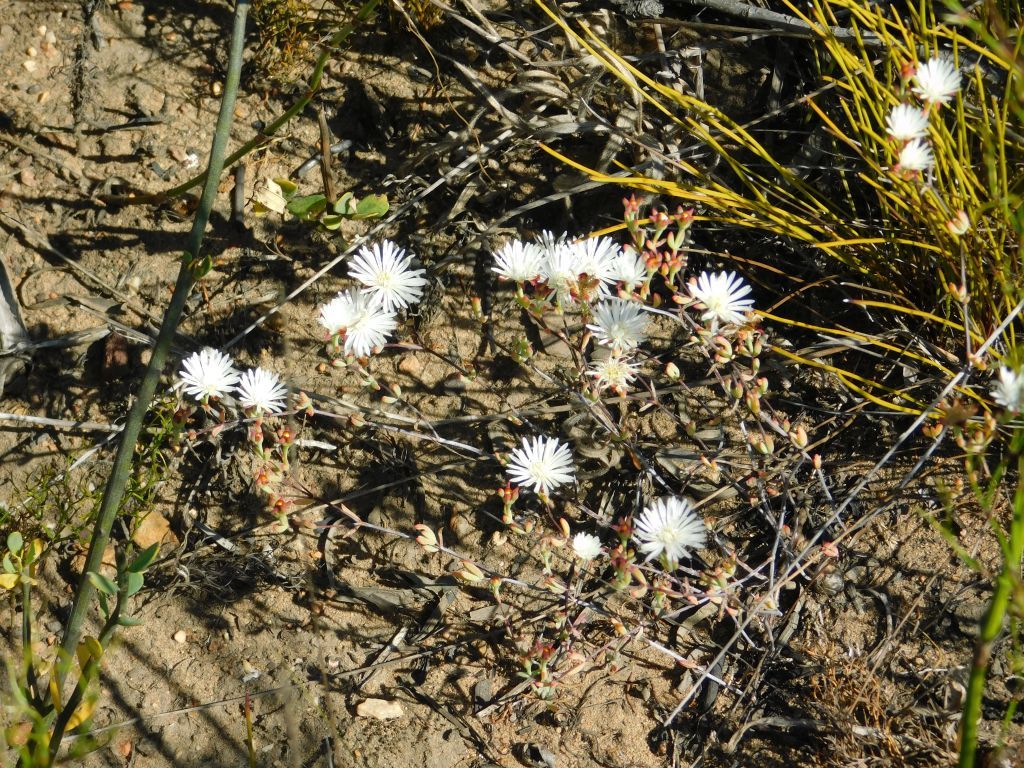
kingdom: Plantae
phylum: Tracheophyta
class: Magnoliopsida
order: Caryophyllales
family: Aizoaceae
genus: Lampranthus
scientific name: Lampranthus falcatus
